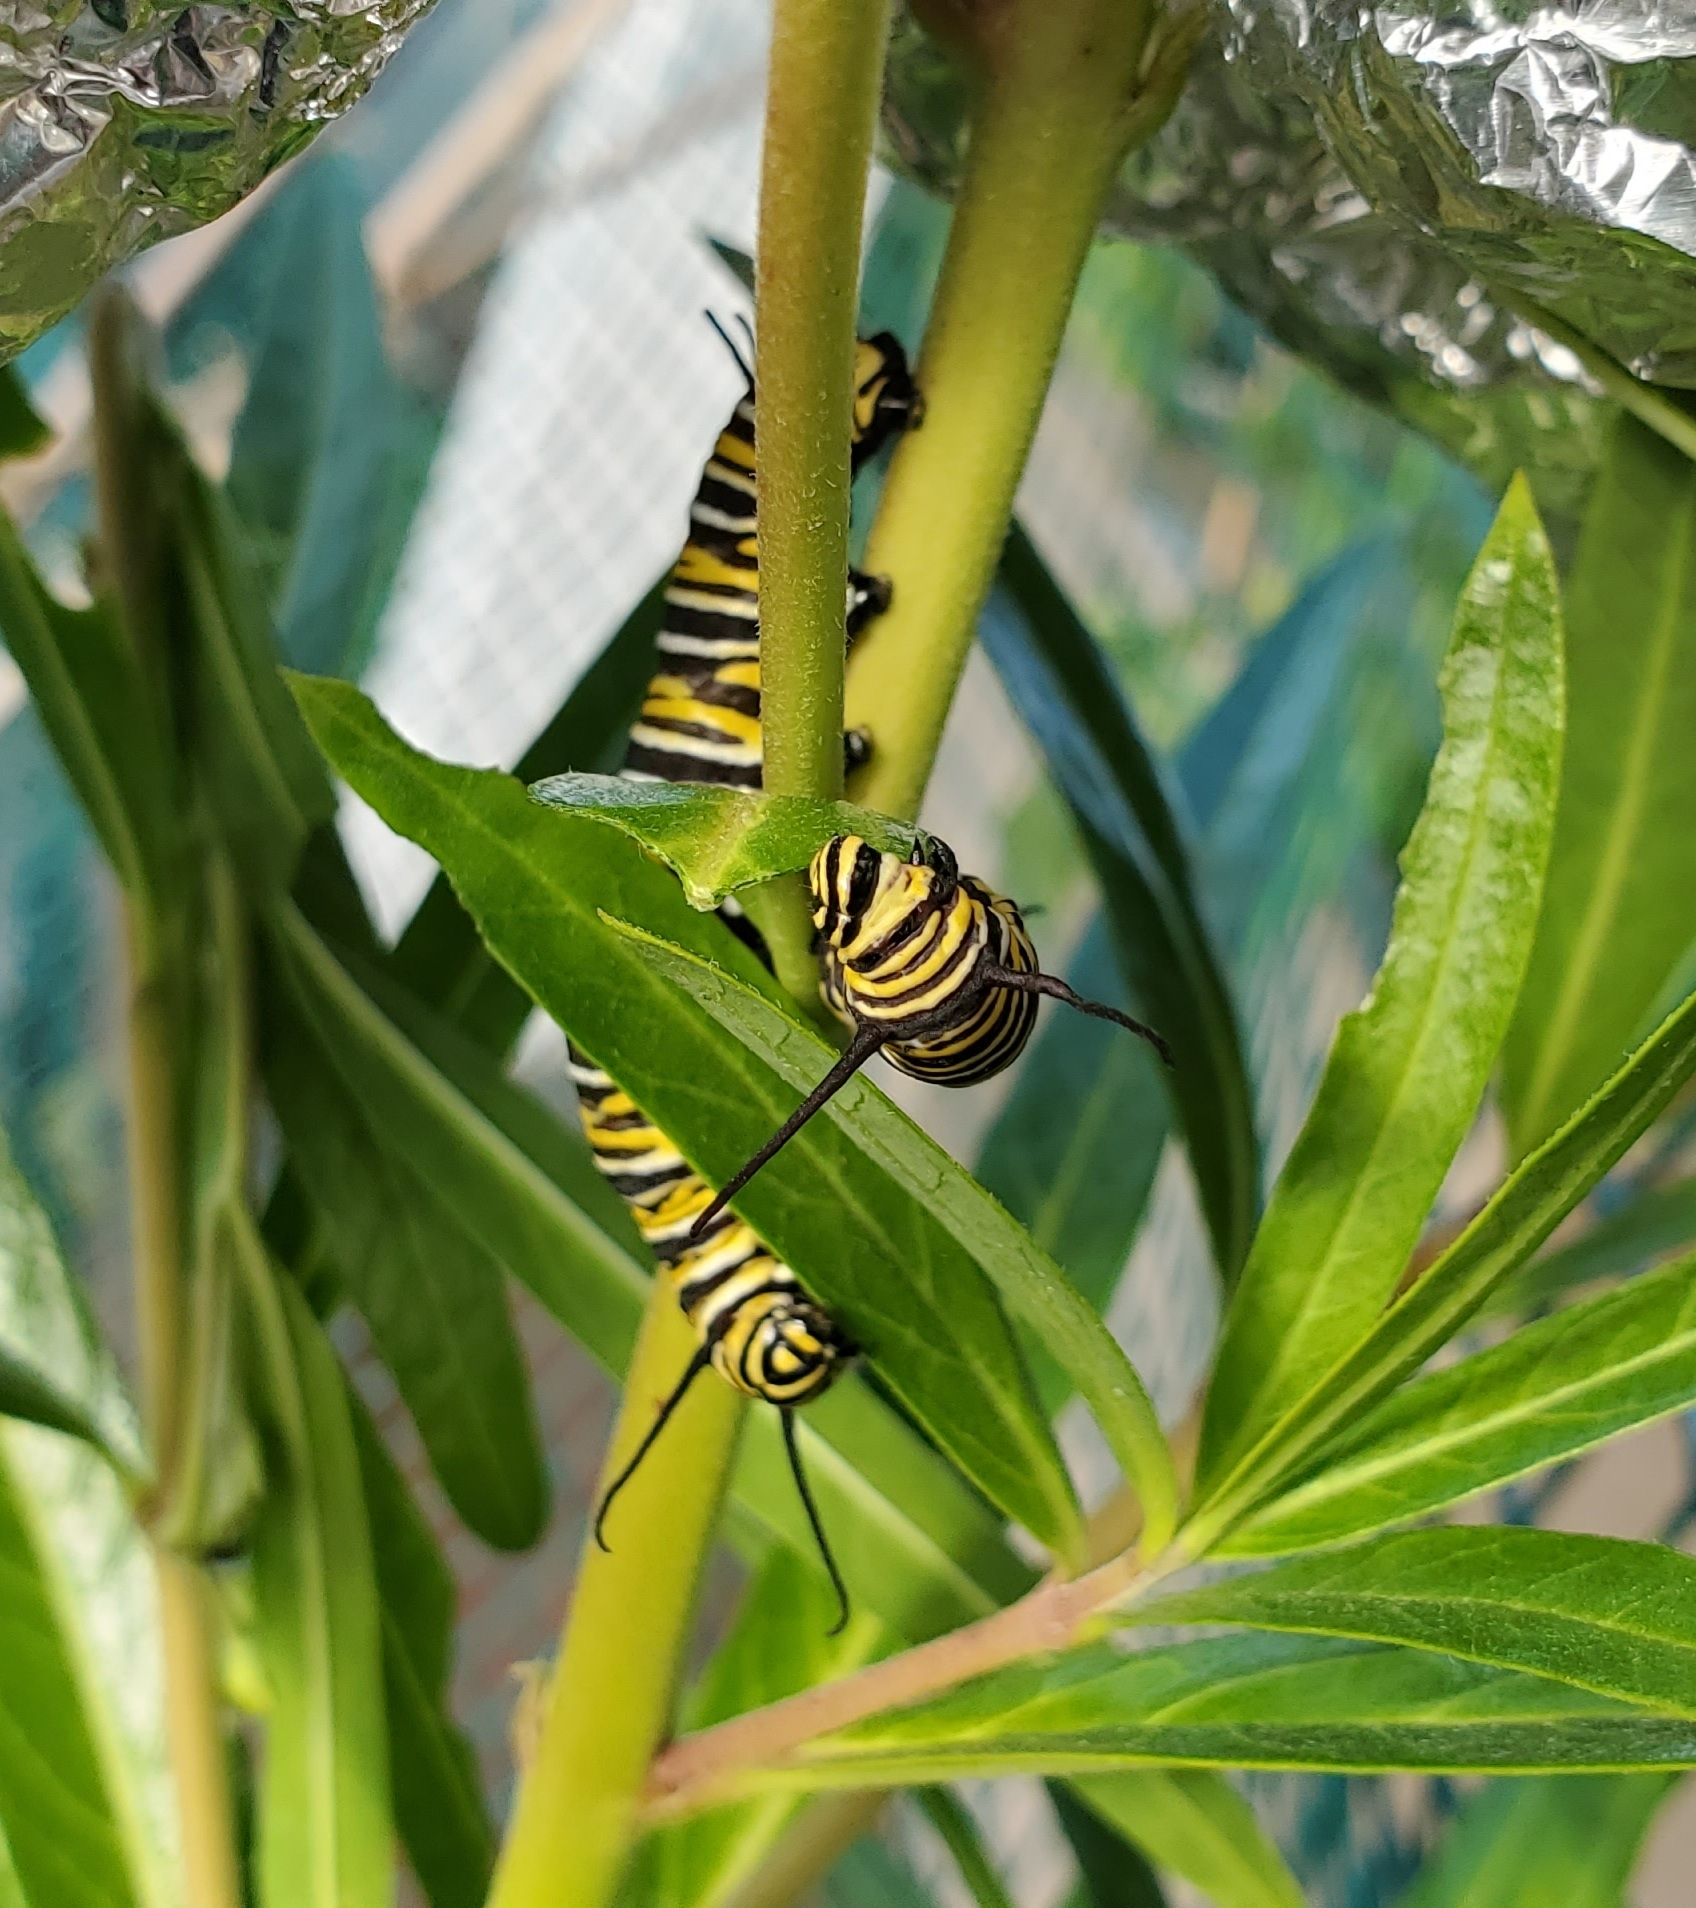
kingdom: Animalia
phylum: Arthropoda
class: Insecta
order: Lepidoptera
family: Nymphalidae
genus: Danaus
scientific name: Danaus plexippus
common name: Monarch
